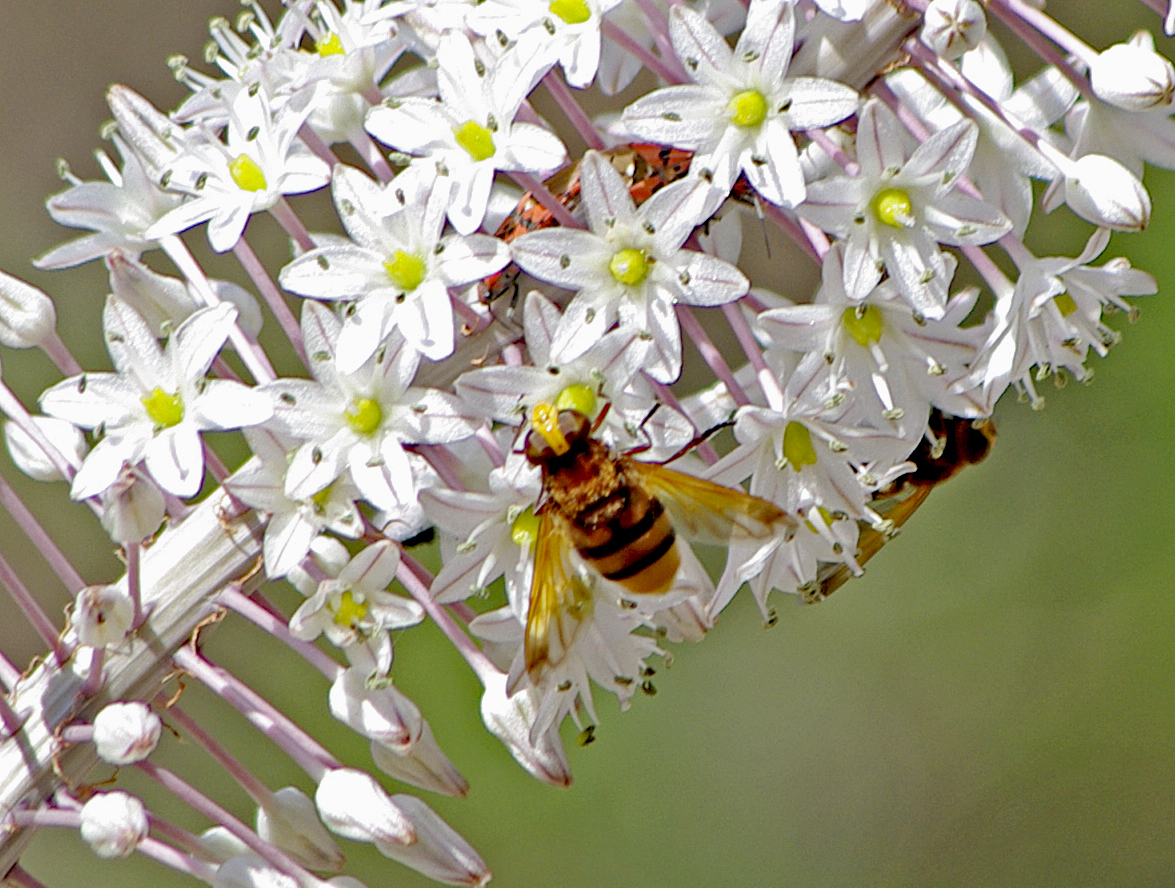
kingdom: Animalia
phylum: Arthropoda
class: Insecta
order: Diptera
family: Syrphidae
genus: Volucella
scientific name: Volucella zonaria
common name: Hornet hoverfly
